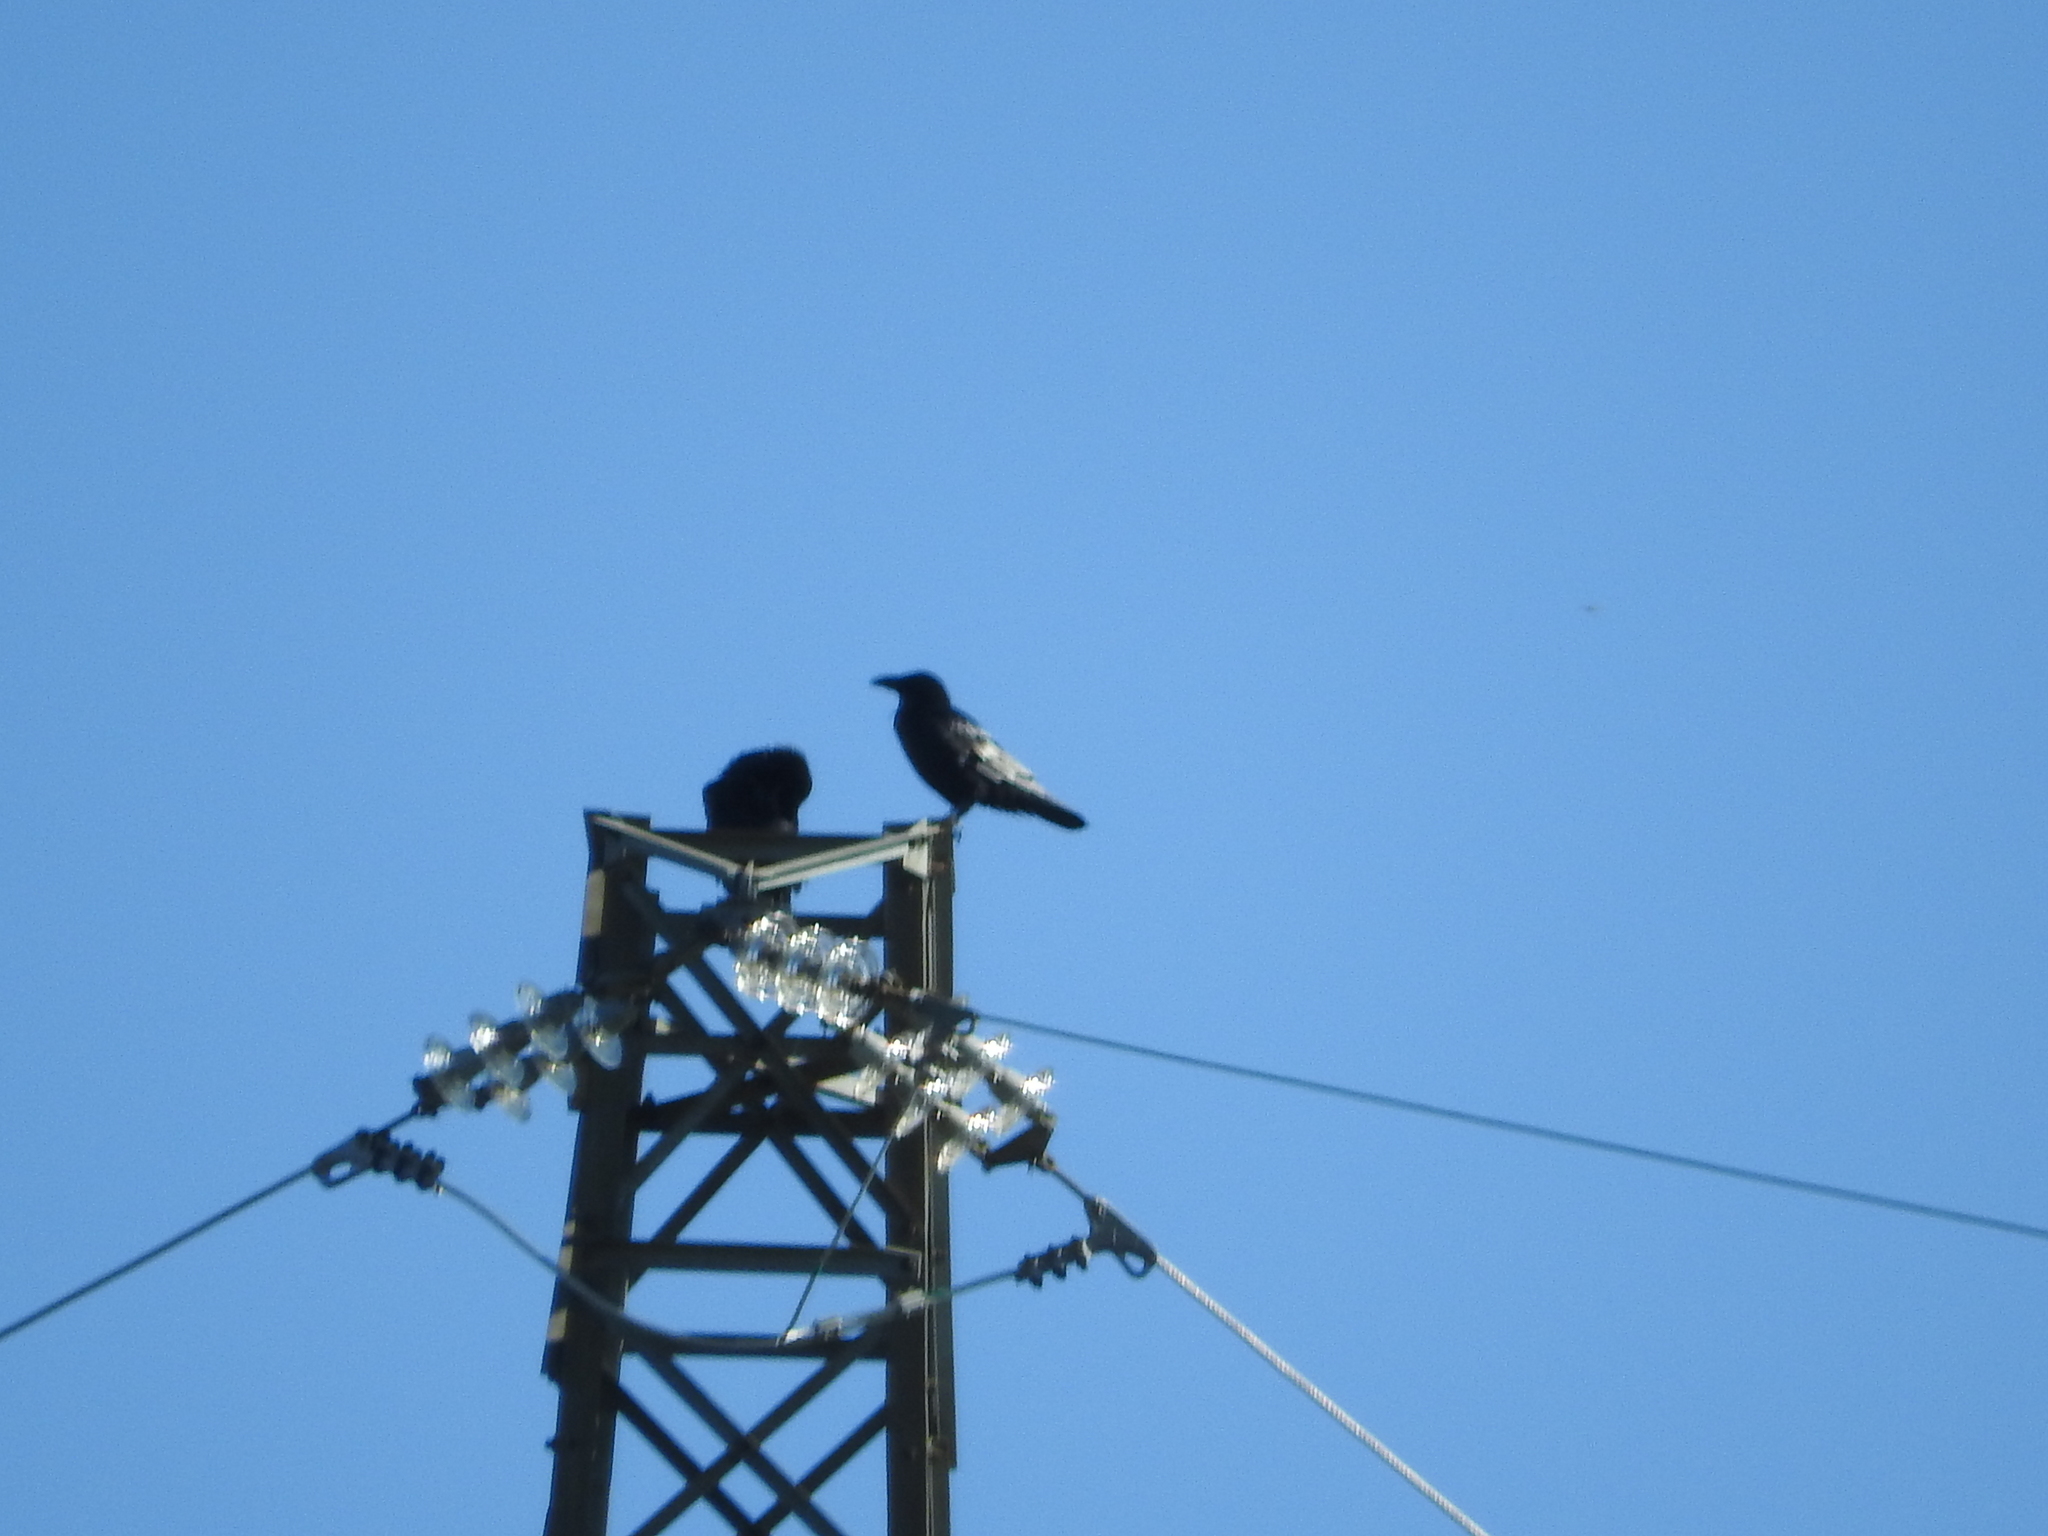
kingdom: Animalia
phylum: Chordata
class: Aves
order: Passeriformes
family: Corvidae
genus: Corvus
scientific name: Corvus corax
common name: Common raven
